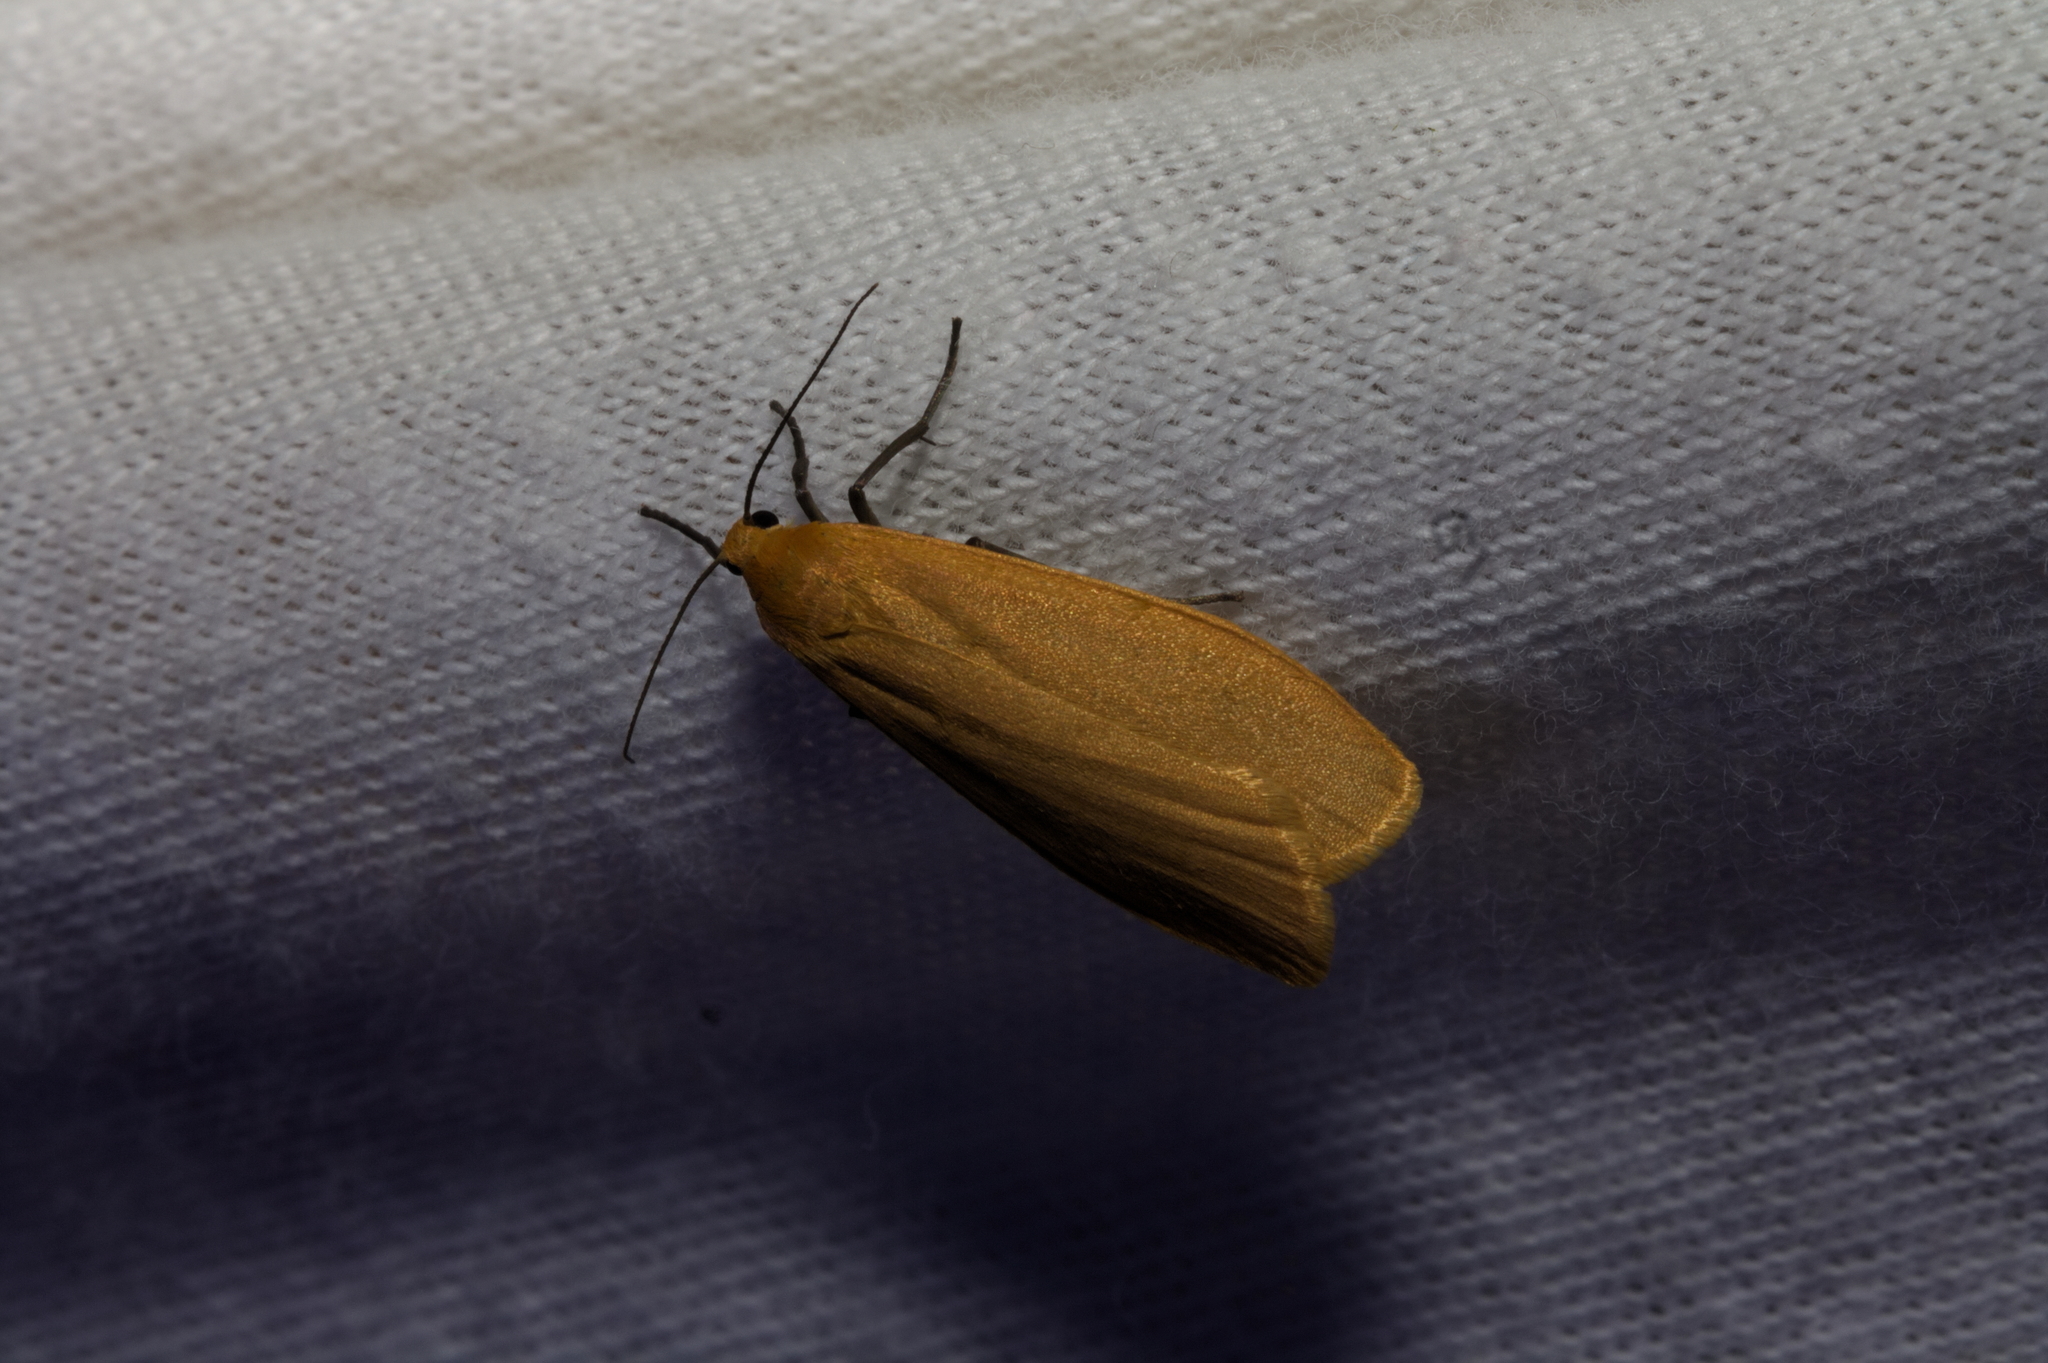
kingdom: Animalia
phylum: Arthropoda
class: Insecta
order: Lepidoptera
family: Erebidae
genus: Wittia
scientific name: Wittia sororcula
